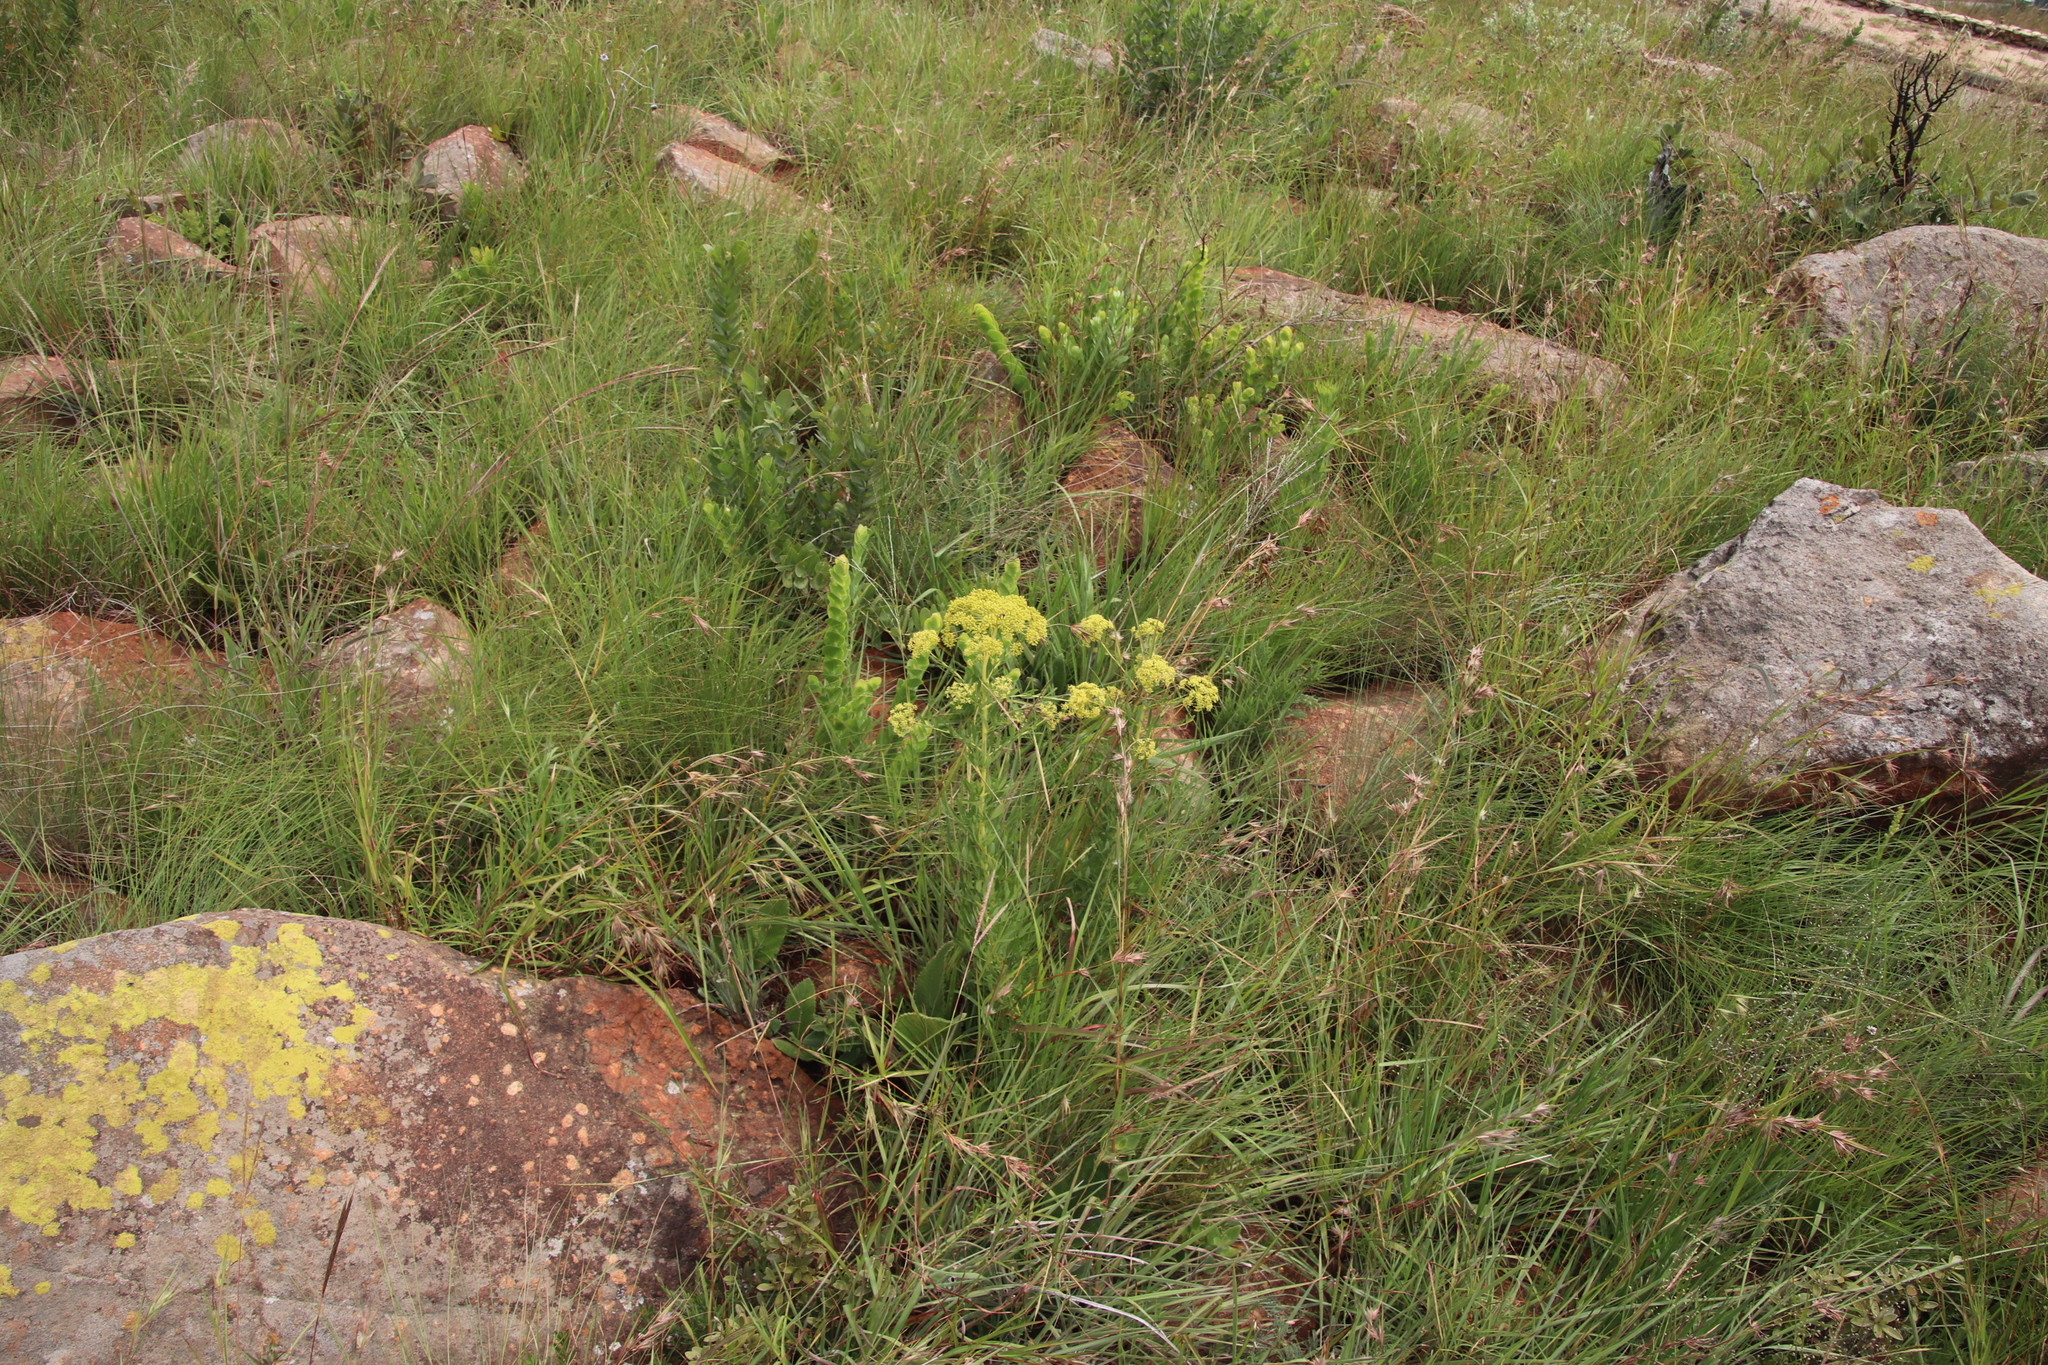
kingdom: Plantae
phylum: Tracheophyta
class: Magnoliopsida
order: Apiales
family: Apiaceae
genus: Heteromorpha
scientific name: Heteromorpha involucrata
